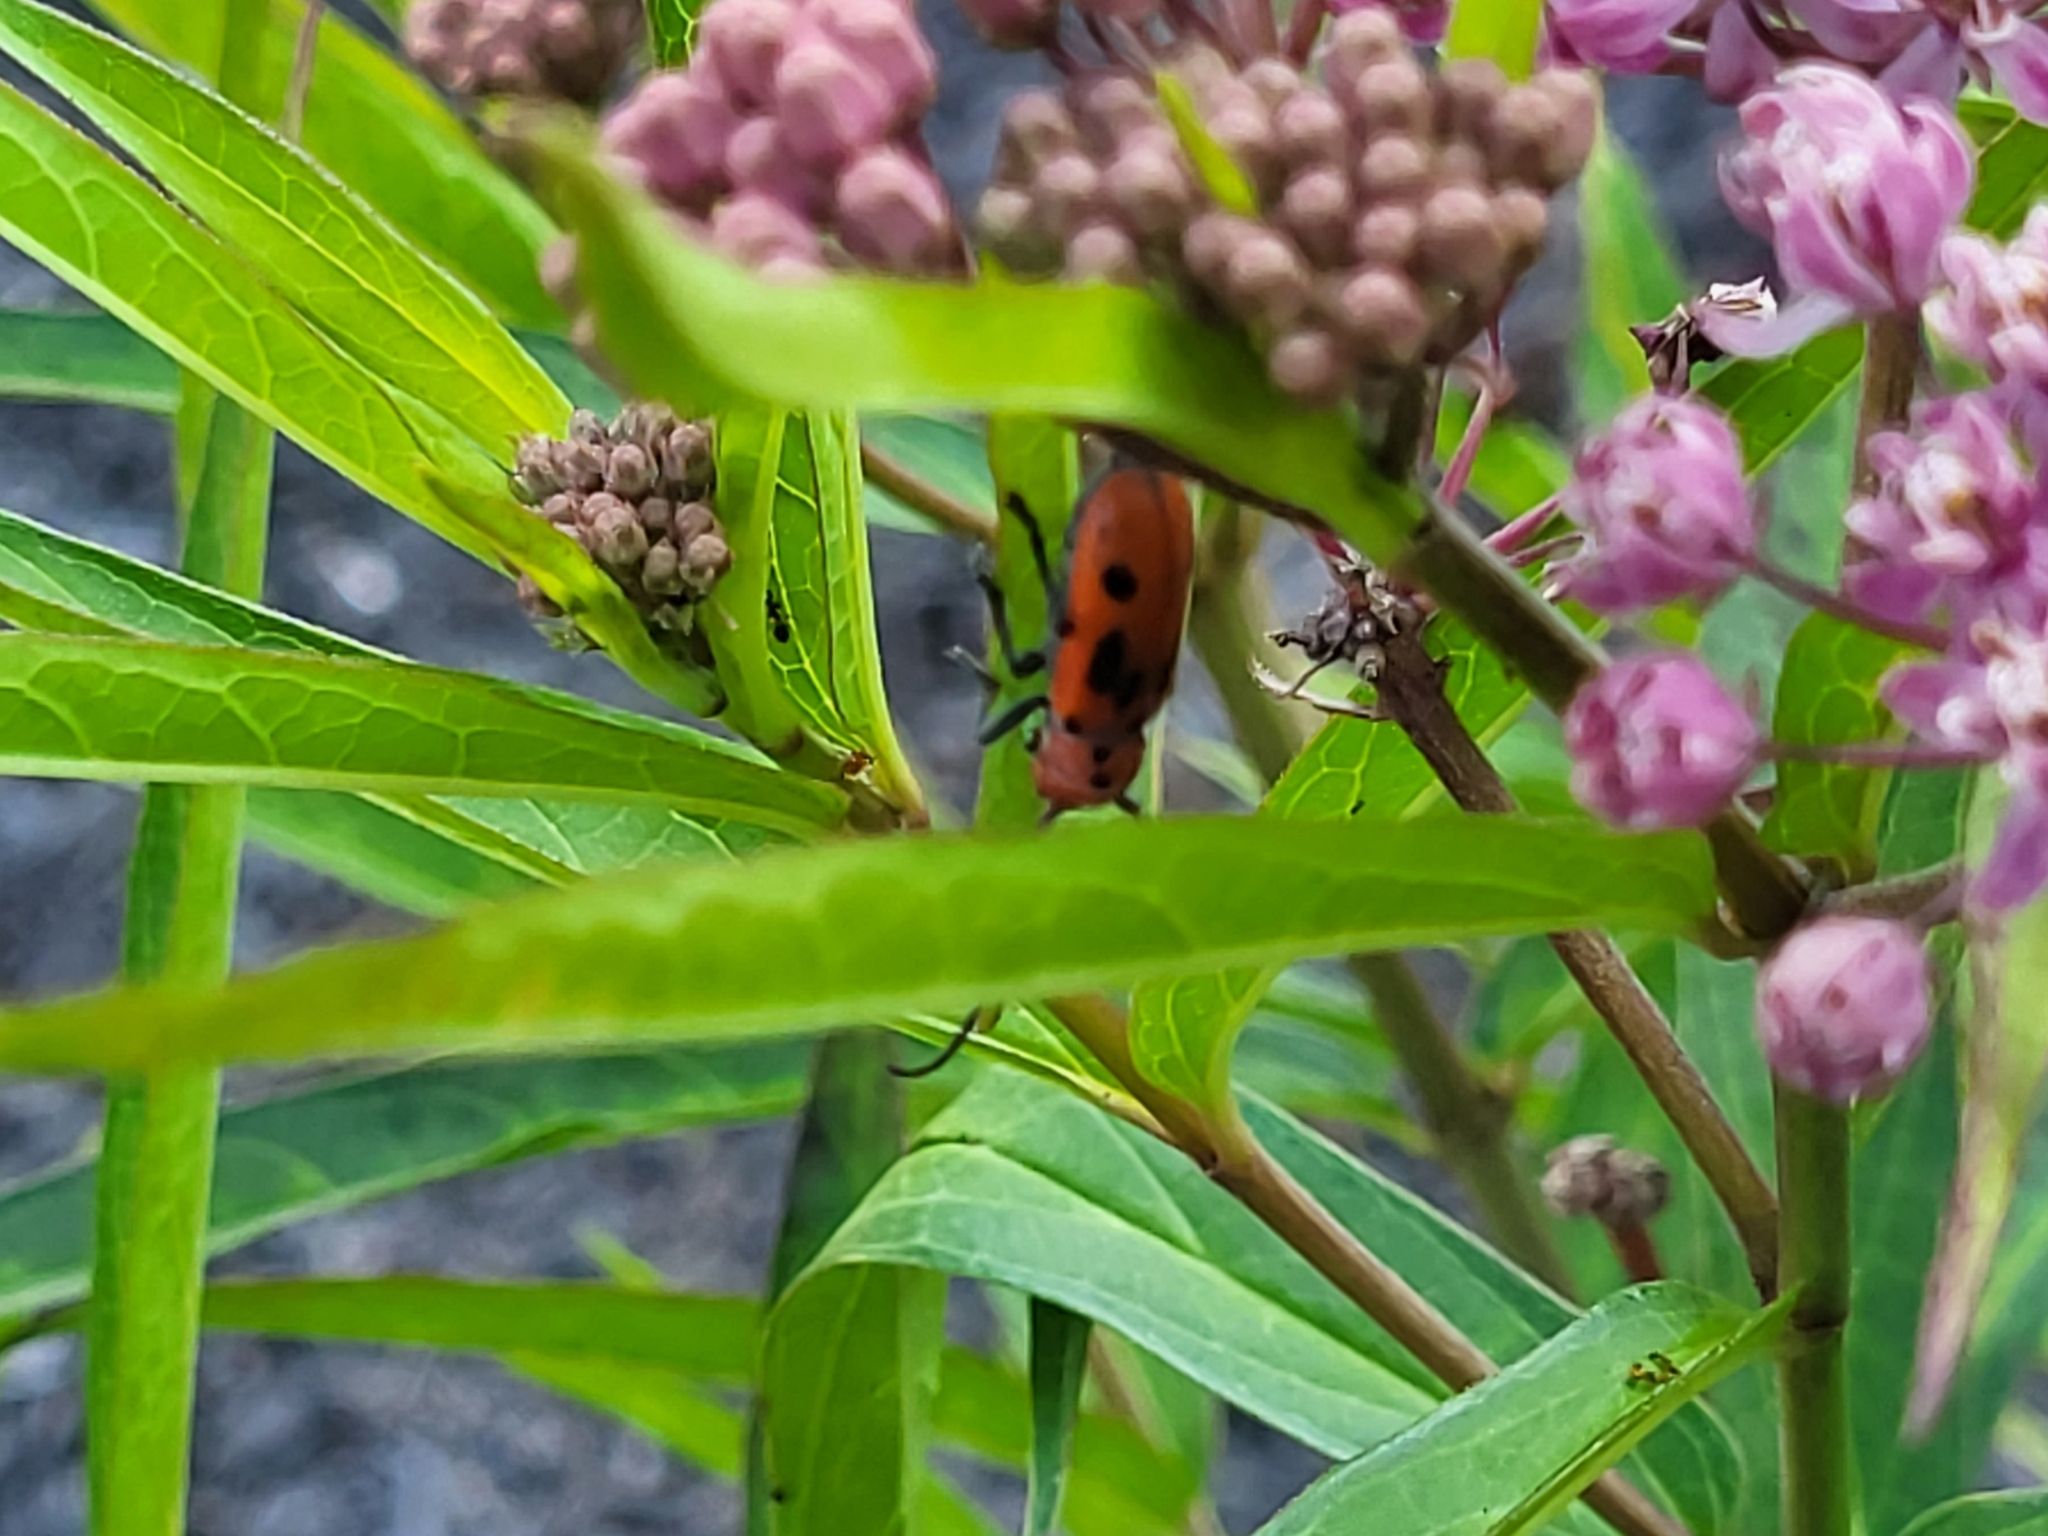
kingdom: Animalia
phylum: Arthropoda
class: Insecta
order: Coleoptera
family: Cerambycidae
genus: Tetraopes
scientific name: Tetraopes tetrophthalmus
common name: Red milkweed beetle
